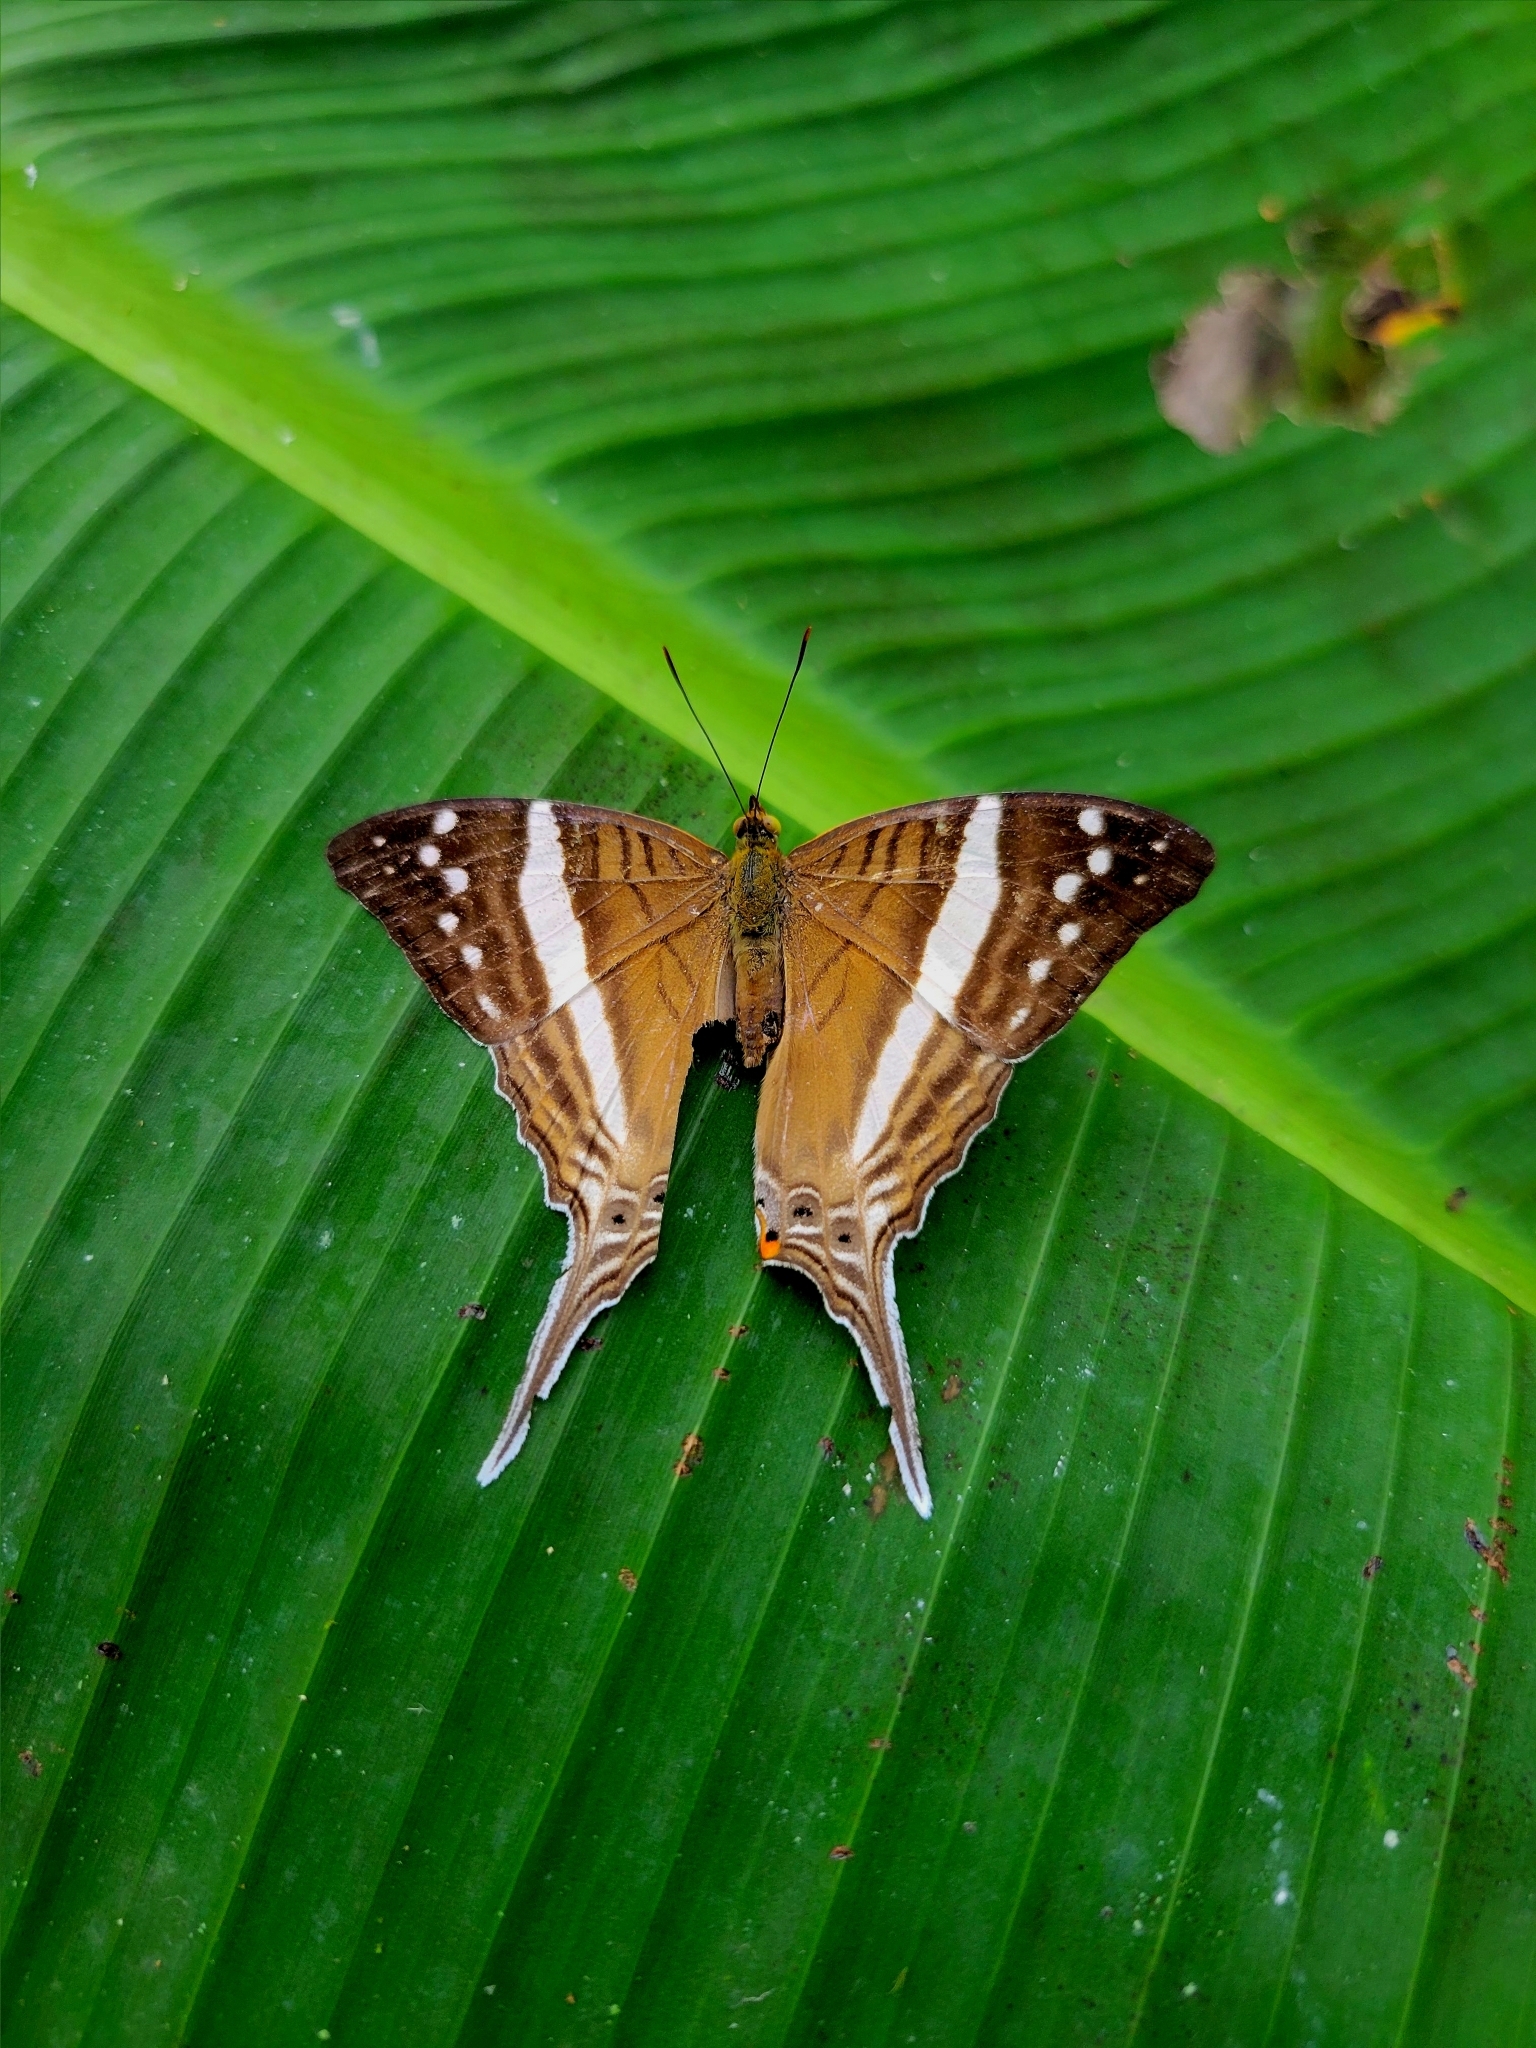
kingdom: Animalia
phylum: Arthropoda
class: Insecta
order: Lepidoptera
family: Nymphalidae
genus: Marpesia
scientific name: Marpesia crethon
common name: Crethon daggerwing
